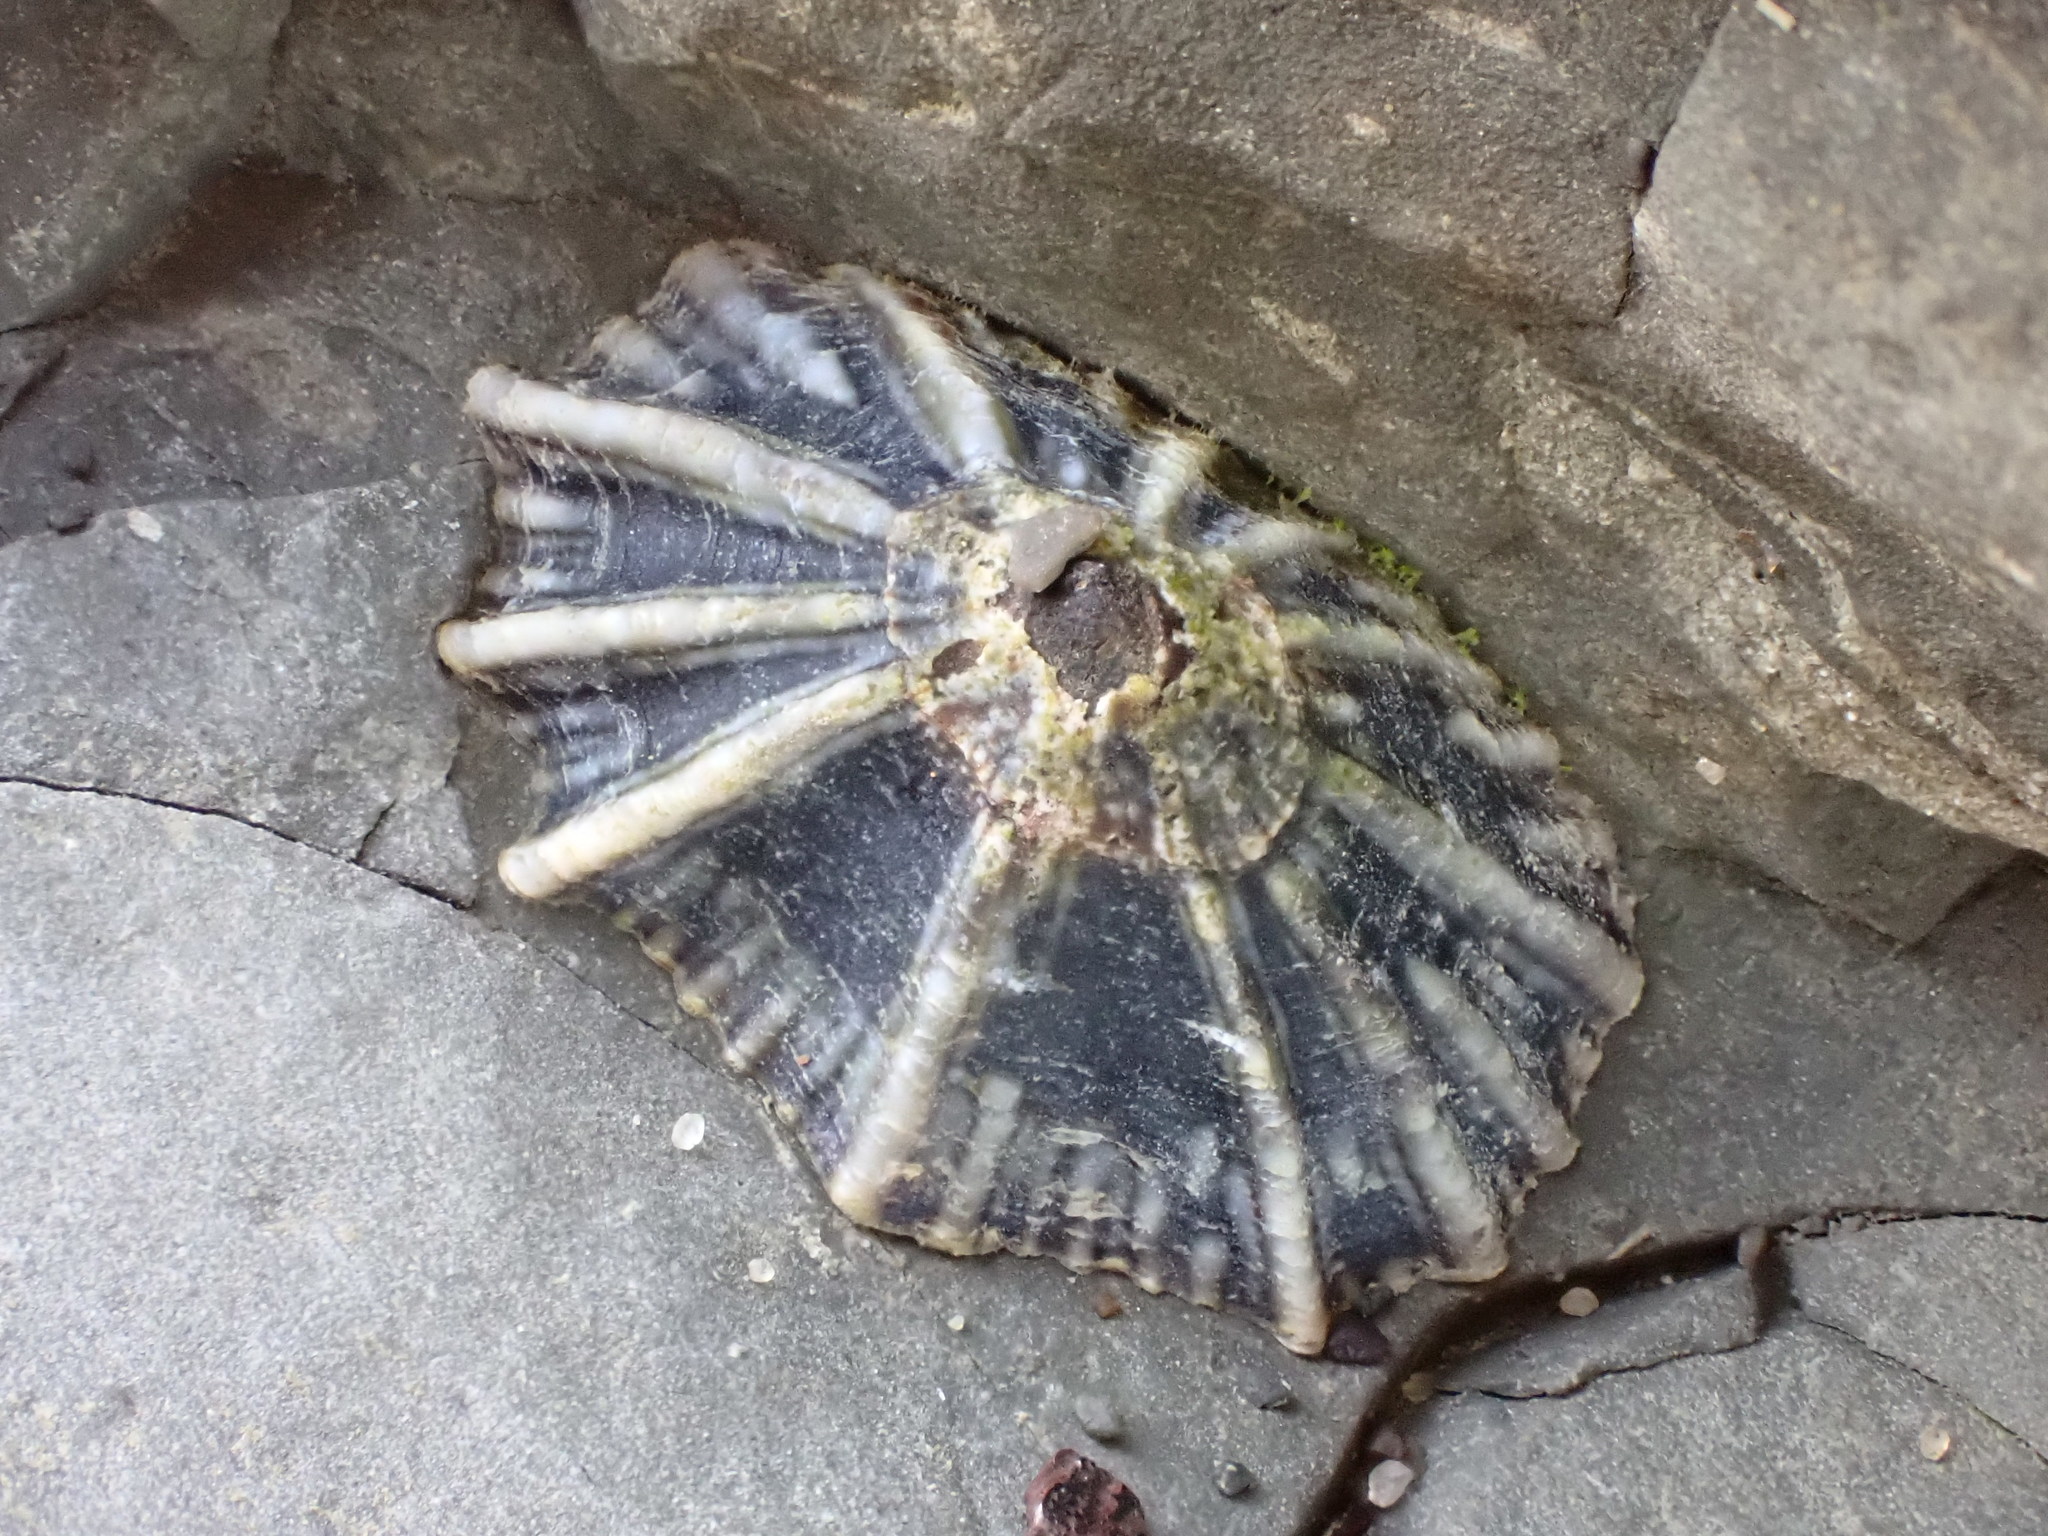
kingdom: Animalia
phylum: Mollusca
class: Gastropoda
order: Siphonariida
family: Siphonariidae
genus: Siphonaria
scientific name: Siphonaria australis
